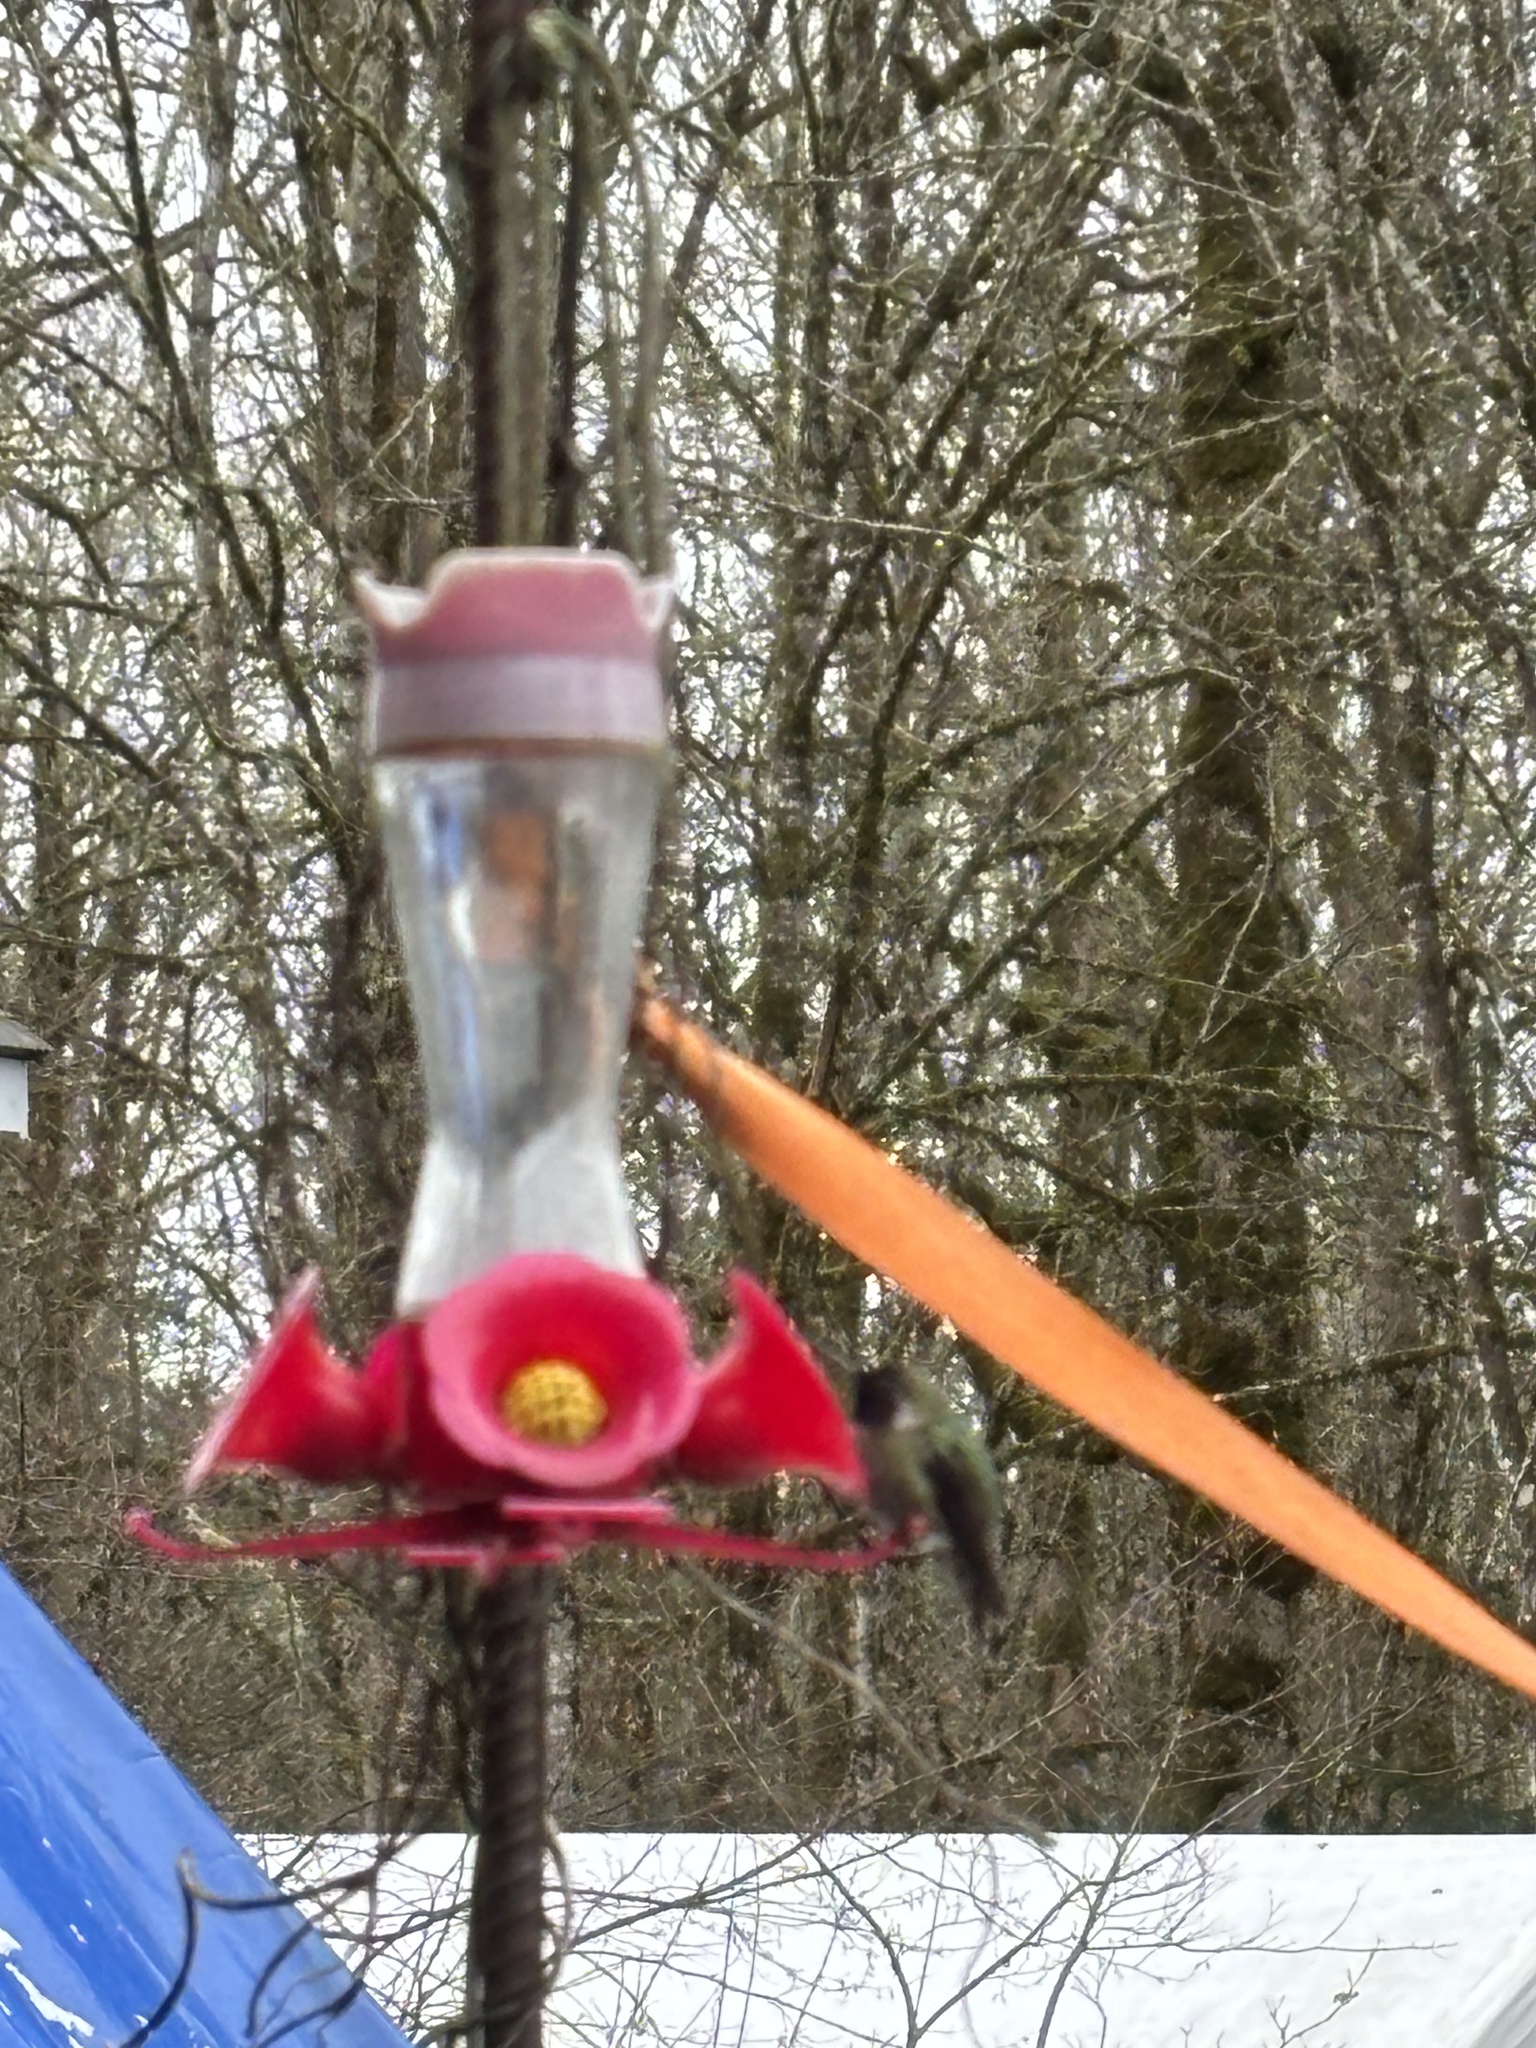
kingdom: Animalia
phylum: Chordata
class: Aves
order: Apodiformes
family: Trochilidae
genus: Calypte
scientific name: Calypte anna
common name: Anna's hummingbird
